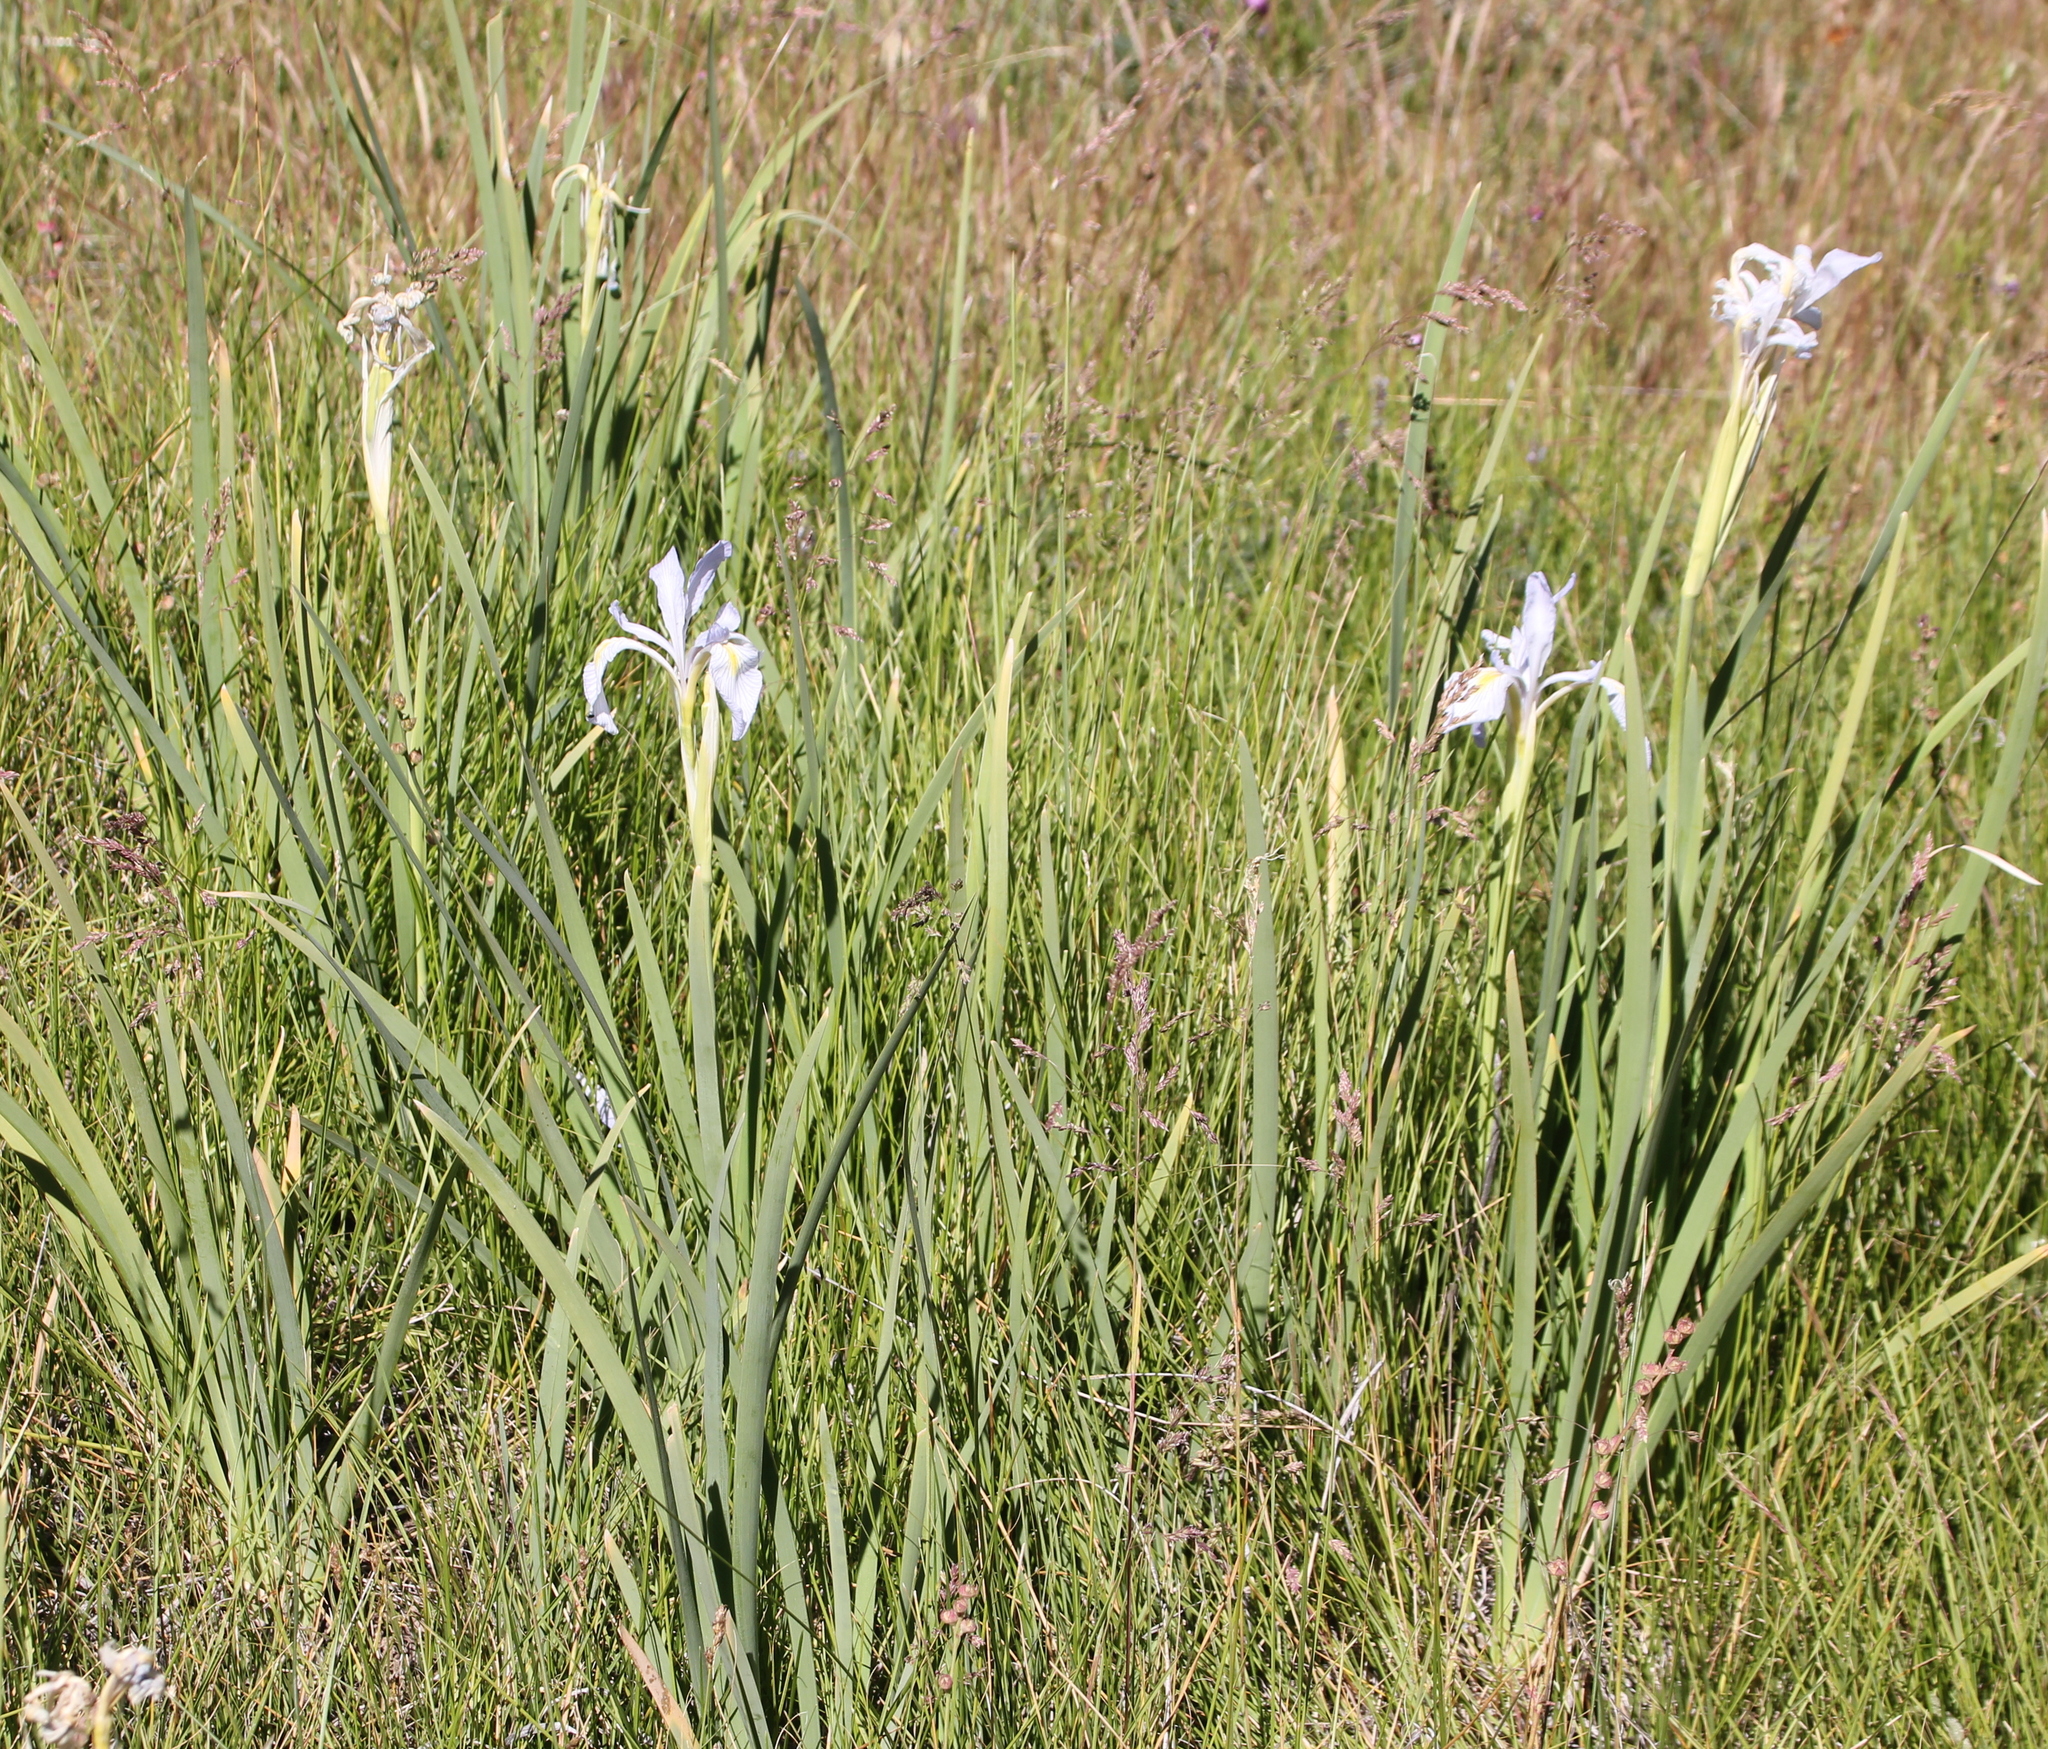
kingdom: Plantae
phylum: Tracheophyta
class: Liliopsida
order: Asparagales
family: Iridaceae
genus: Iris
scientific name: Iris missouriensis
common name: Rocky mountain iris
